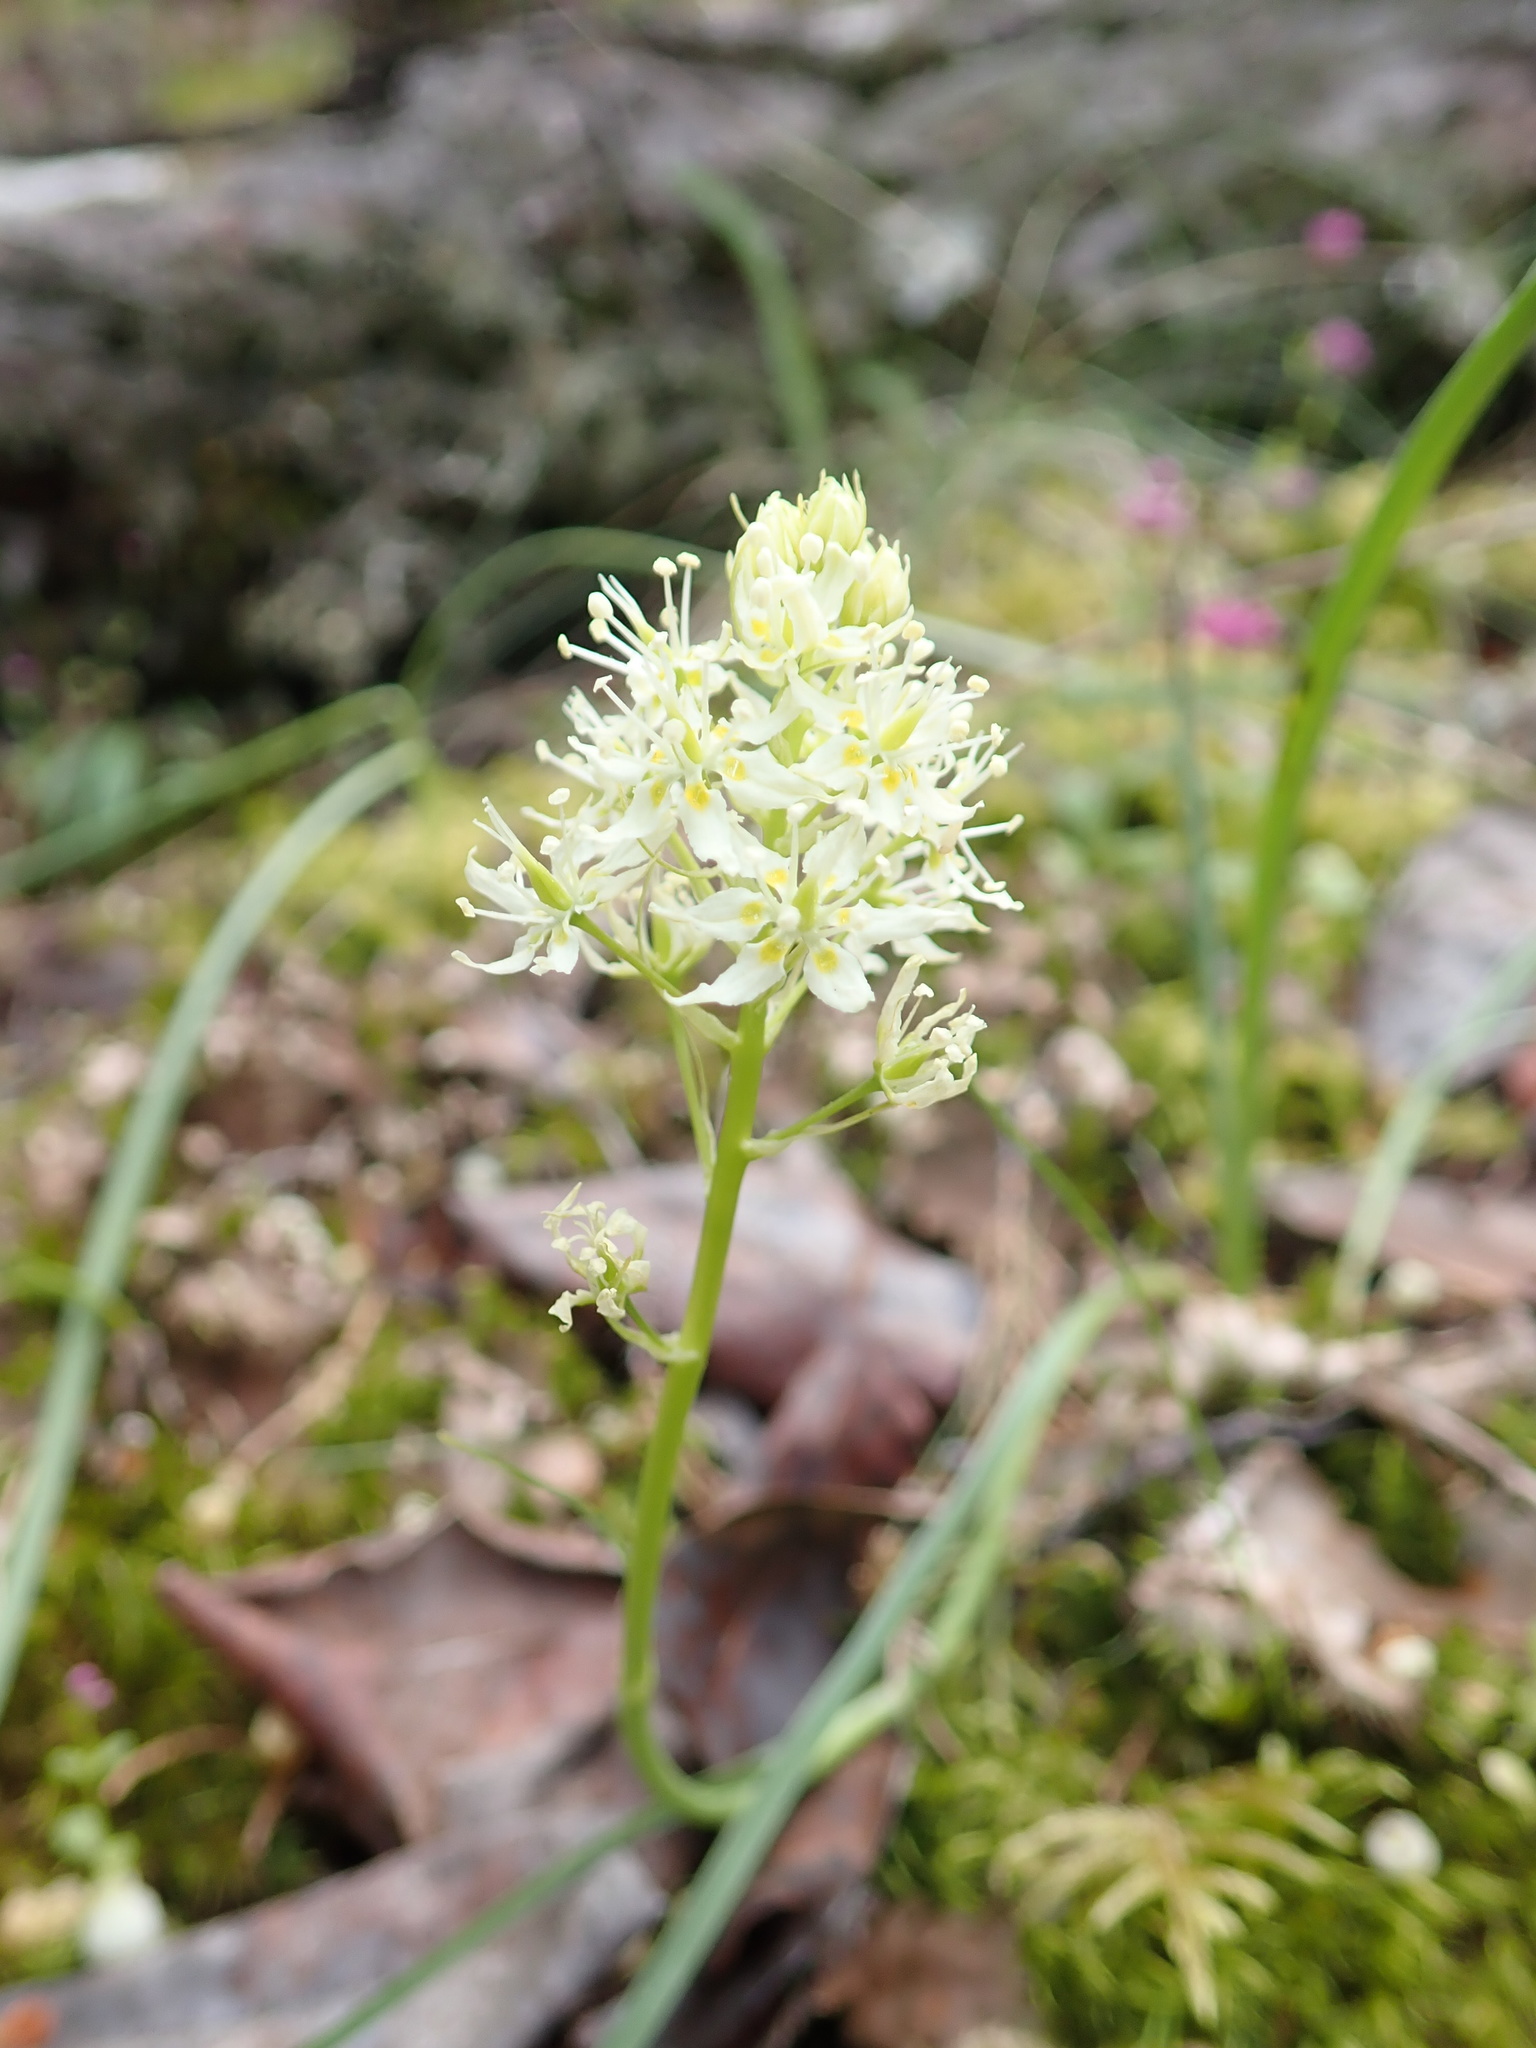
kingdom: Plantae
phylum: Tracheophyta
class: Liliopsida
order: Liliales
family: Melanthiaceae
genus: Toxicoscordion
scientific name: Toxicoscordion venenosum
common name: Meadow death camas
